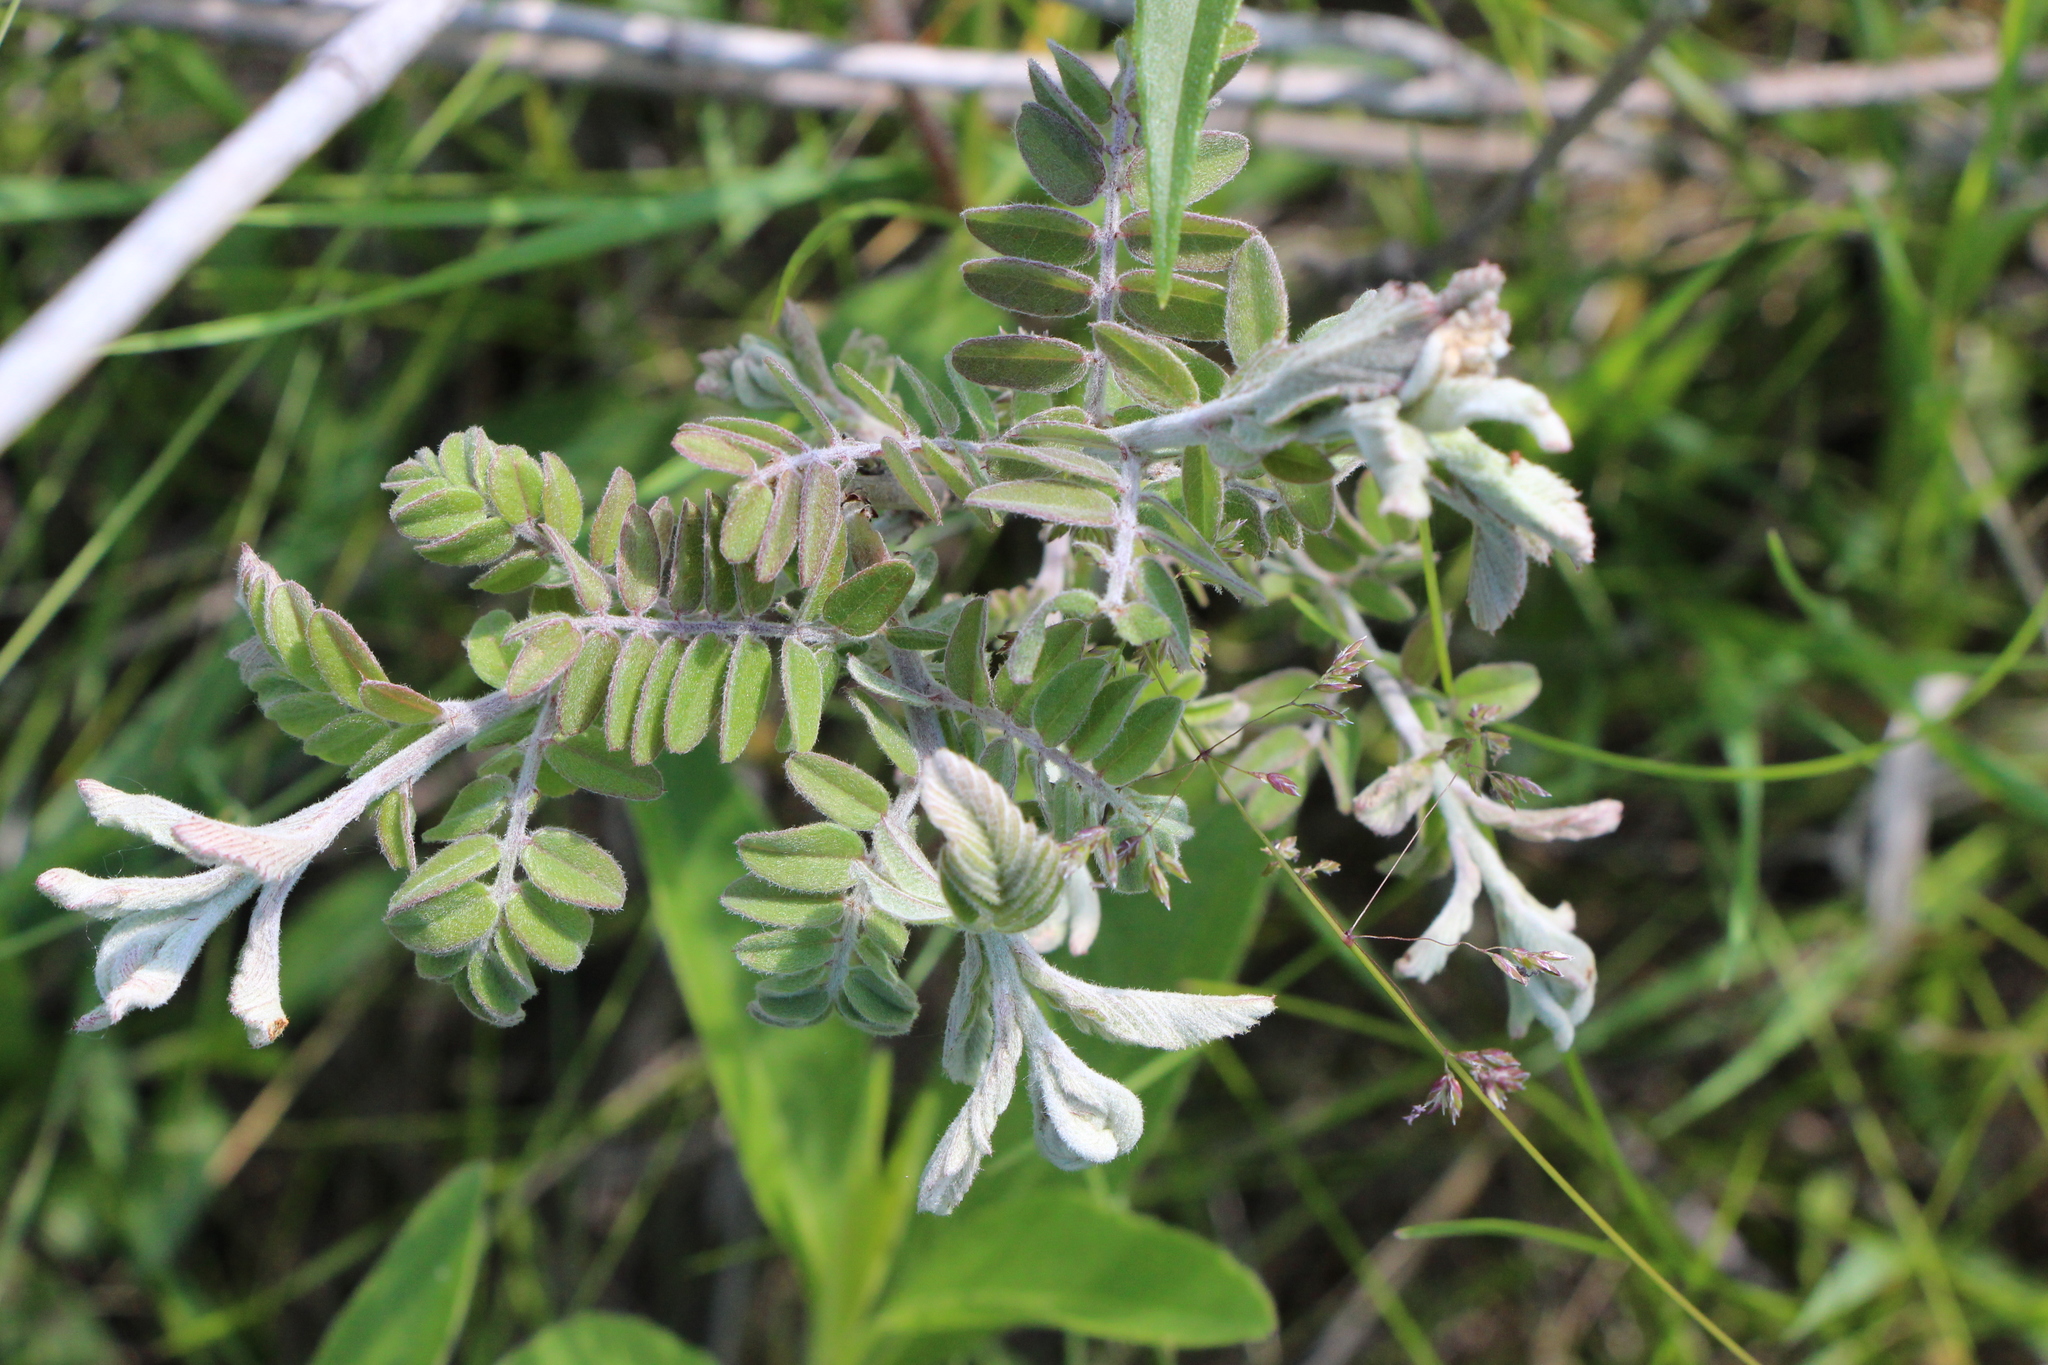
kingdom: Plantae
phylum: Tracheophyta
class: Magnoliopsida
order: Fabales
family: Fabaceae
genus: Amorpha
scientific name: Amorpha canescens
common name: Leadplant
